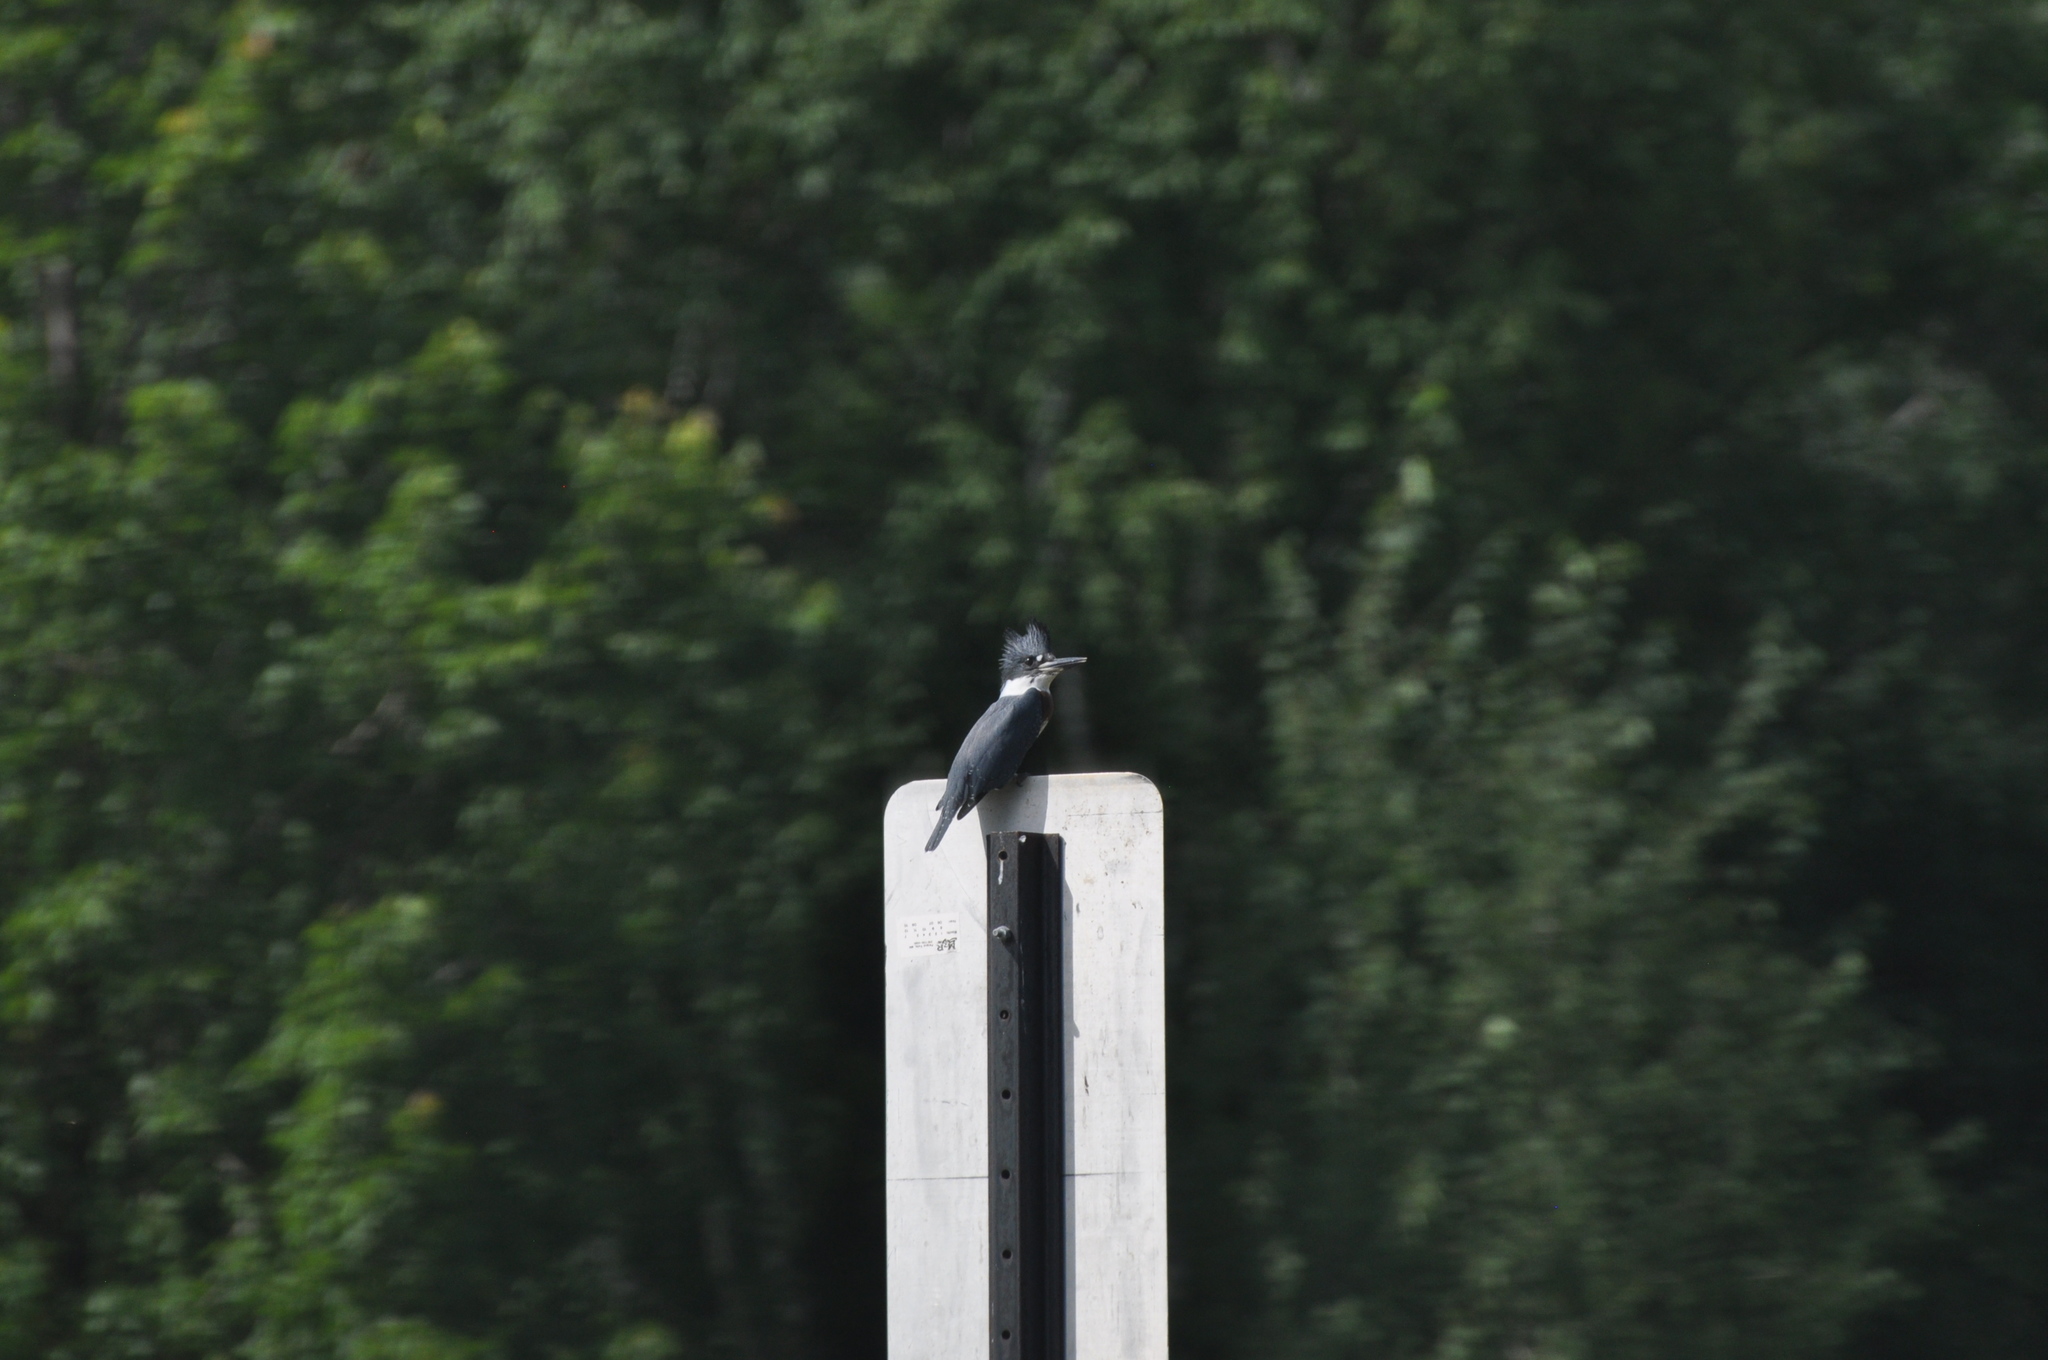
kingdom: Animalia
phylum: Chordata
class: Aves
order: Coraciiformes
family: Alcedinidae
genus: Megaceryle
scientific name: Megaceryle alcyon
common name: Belted kingfisher
